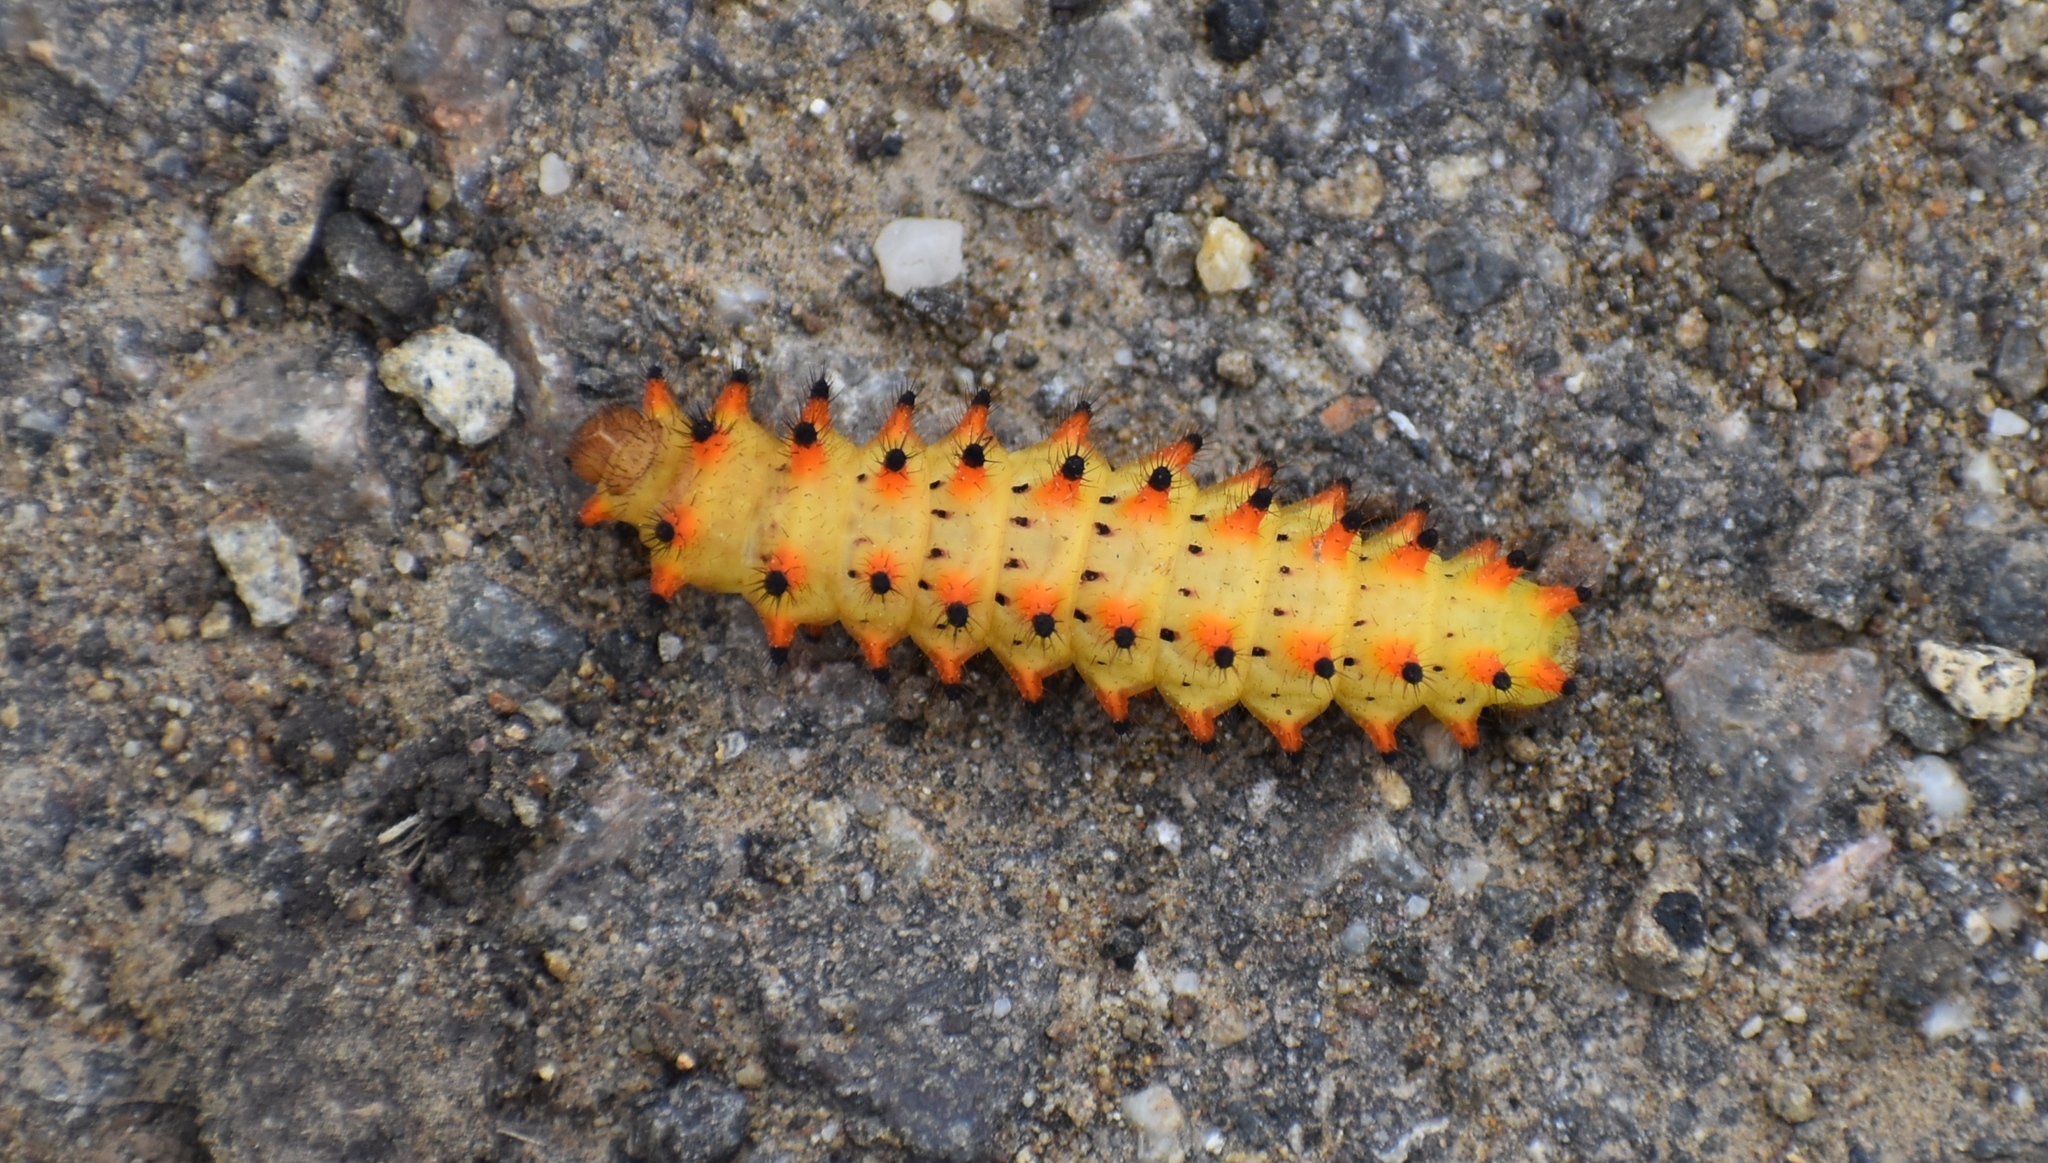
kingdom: Animalia
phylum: Arthropoda
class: Insecta
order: Lepidoptera
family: Papilionidae
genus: Zerynthia
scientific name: Zerynthia polyxena
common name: Southern festoon
